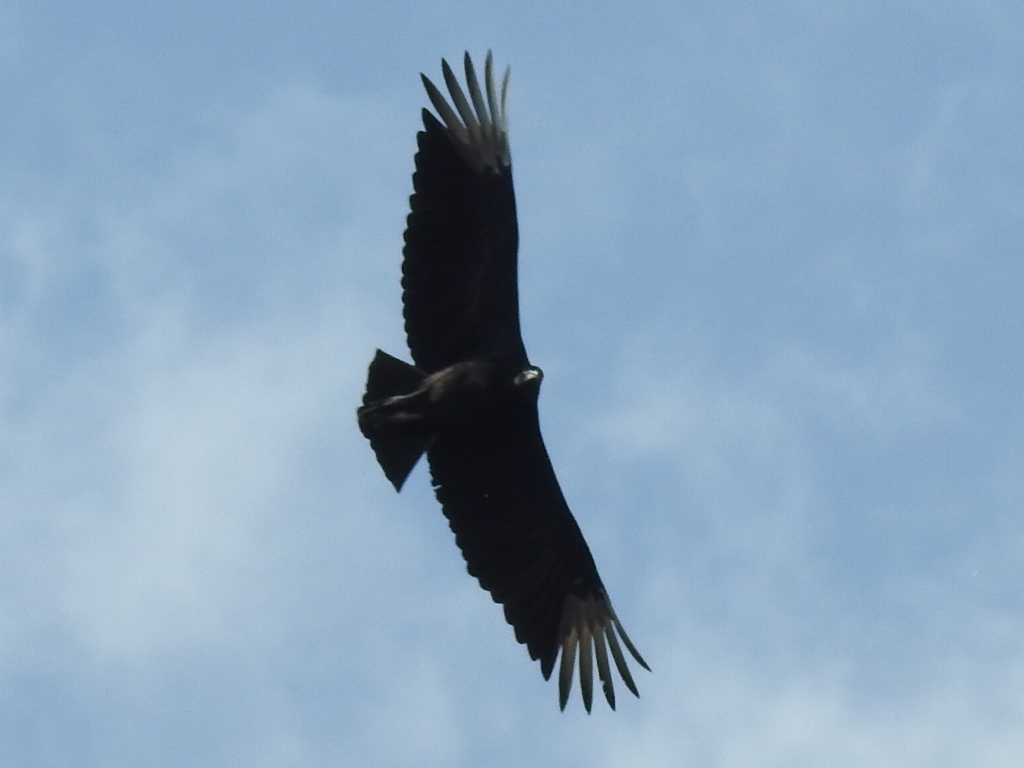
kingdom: Animalia
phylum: Chordata
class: Aves
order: Accipitriformes
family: Cathartidae
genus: Coragyps
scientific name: Coragyps atratus
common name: Black vulture
